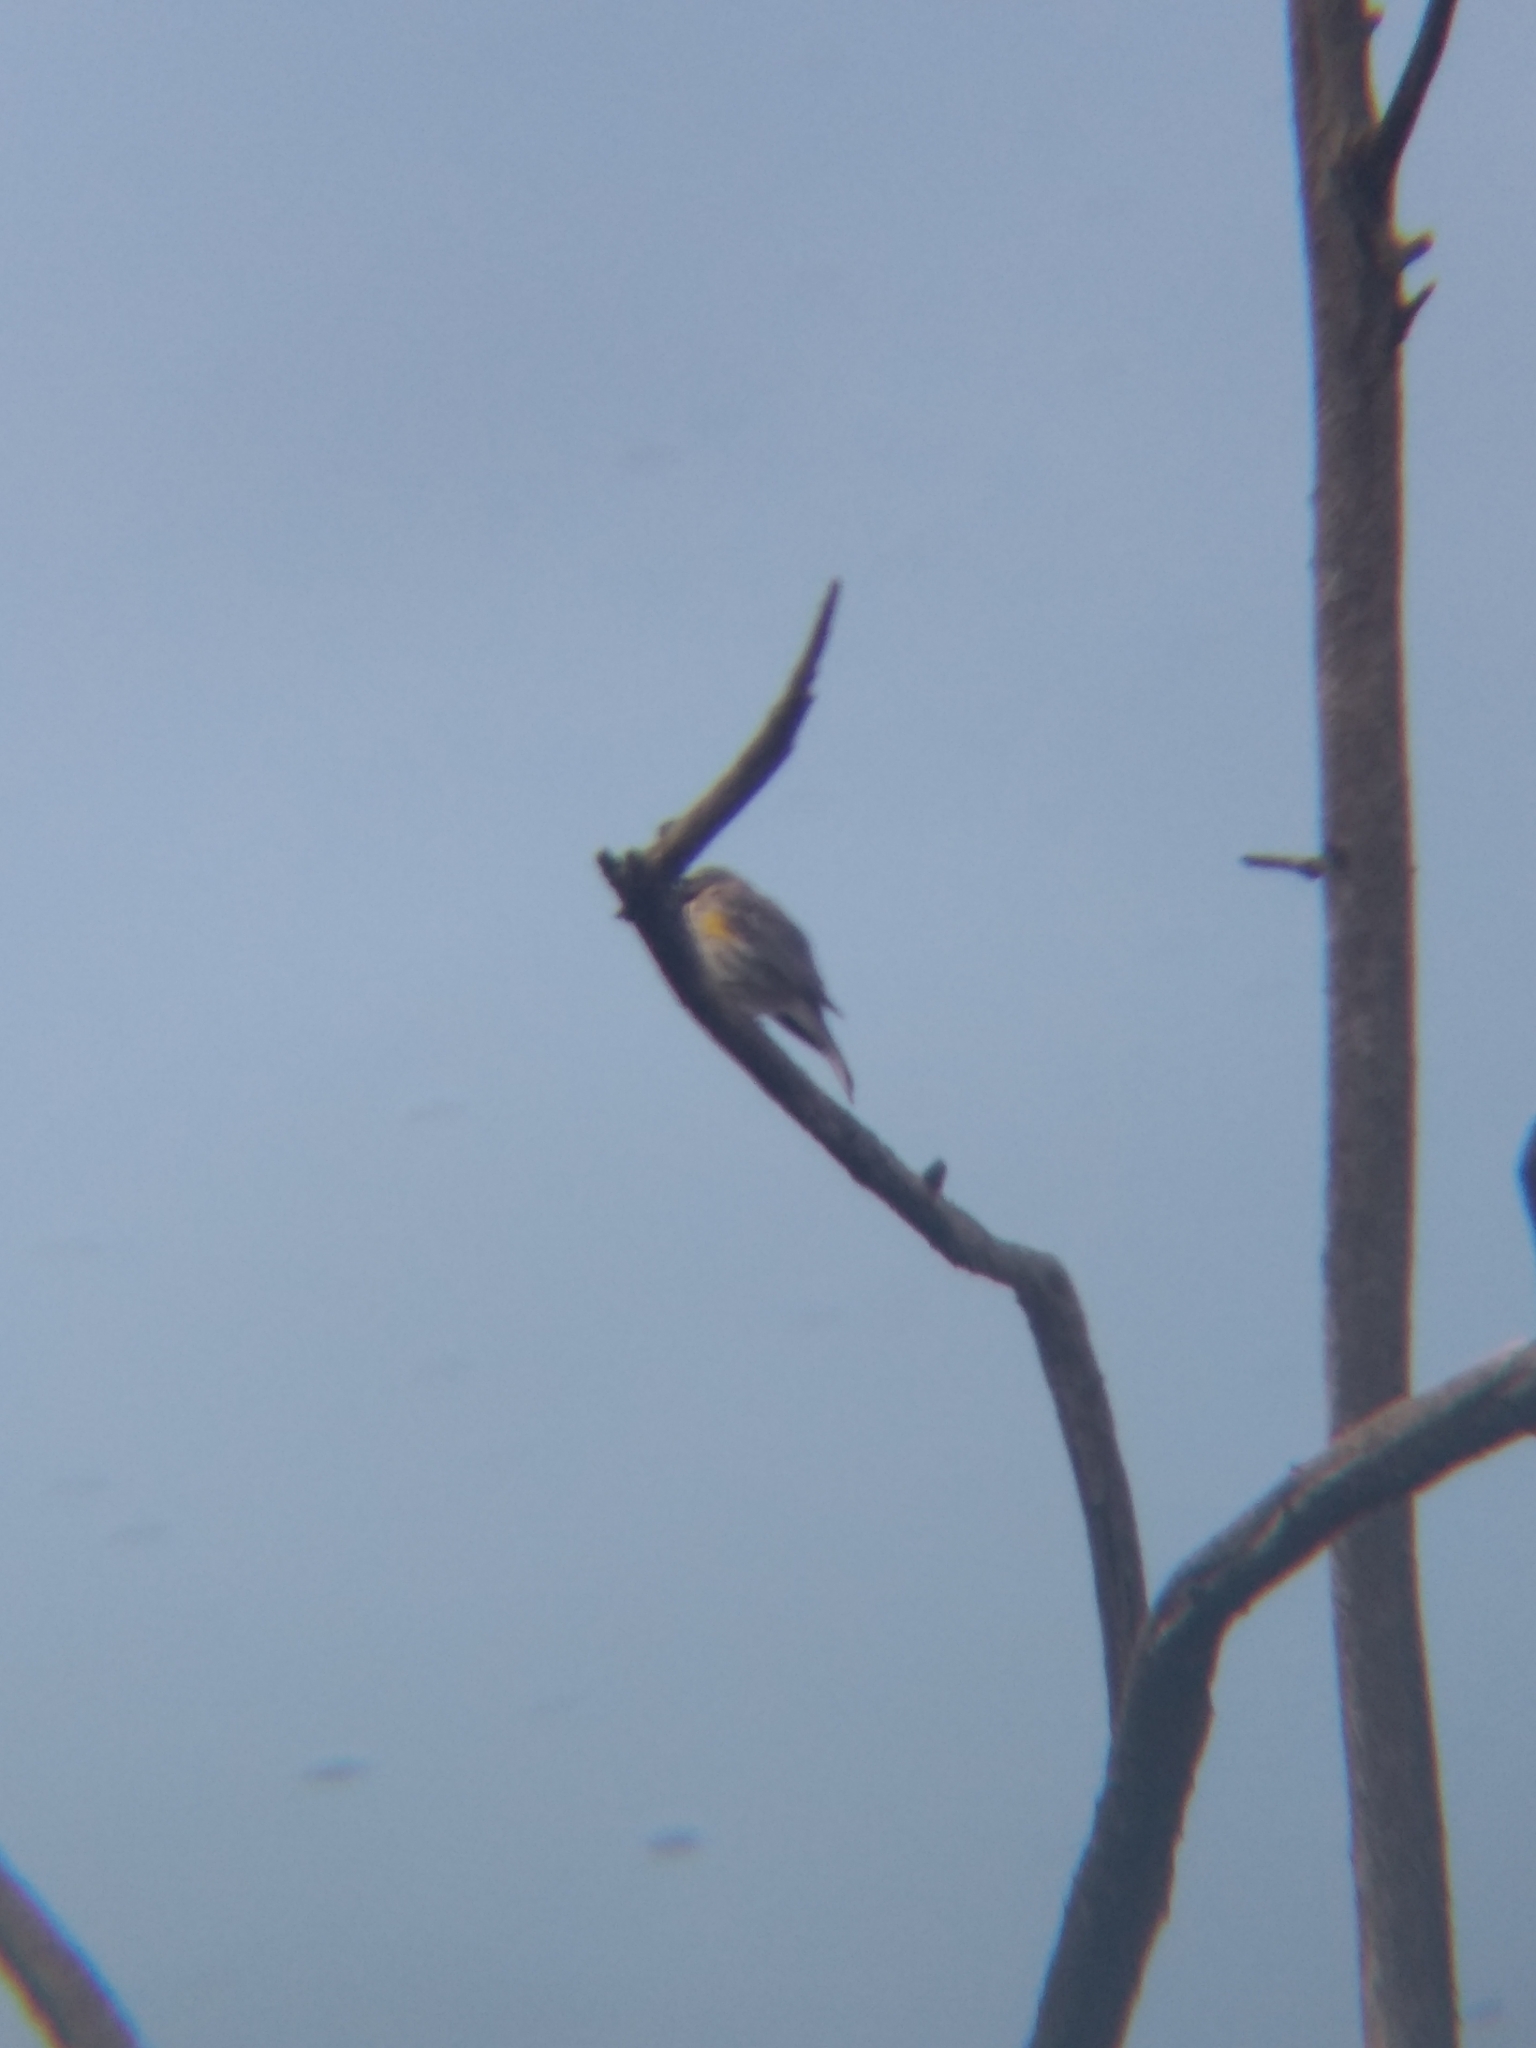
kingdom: Animalia
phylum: Chordata
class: Aves
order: Passeriformes
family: Parulidae
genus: Setophaga
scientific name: Setophaga coronata
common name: Myrtle warbler
